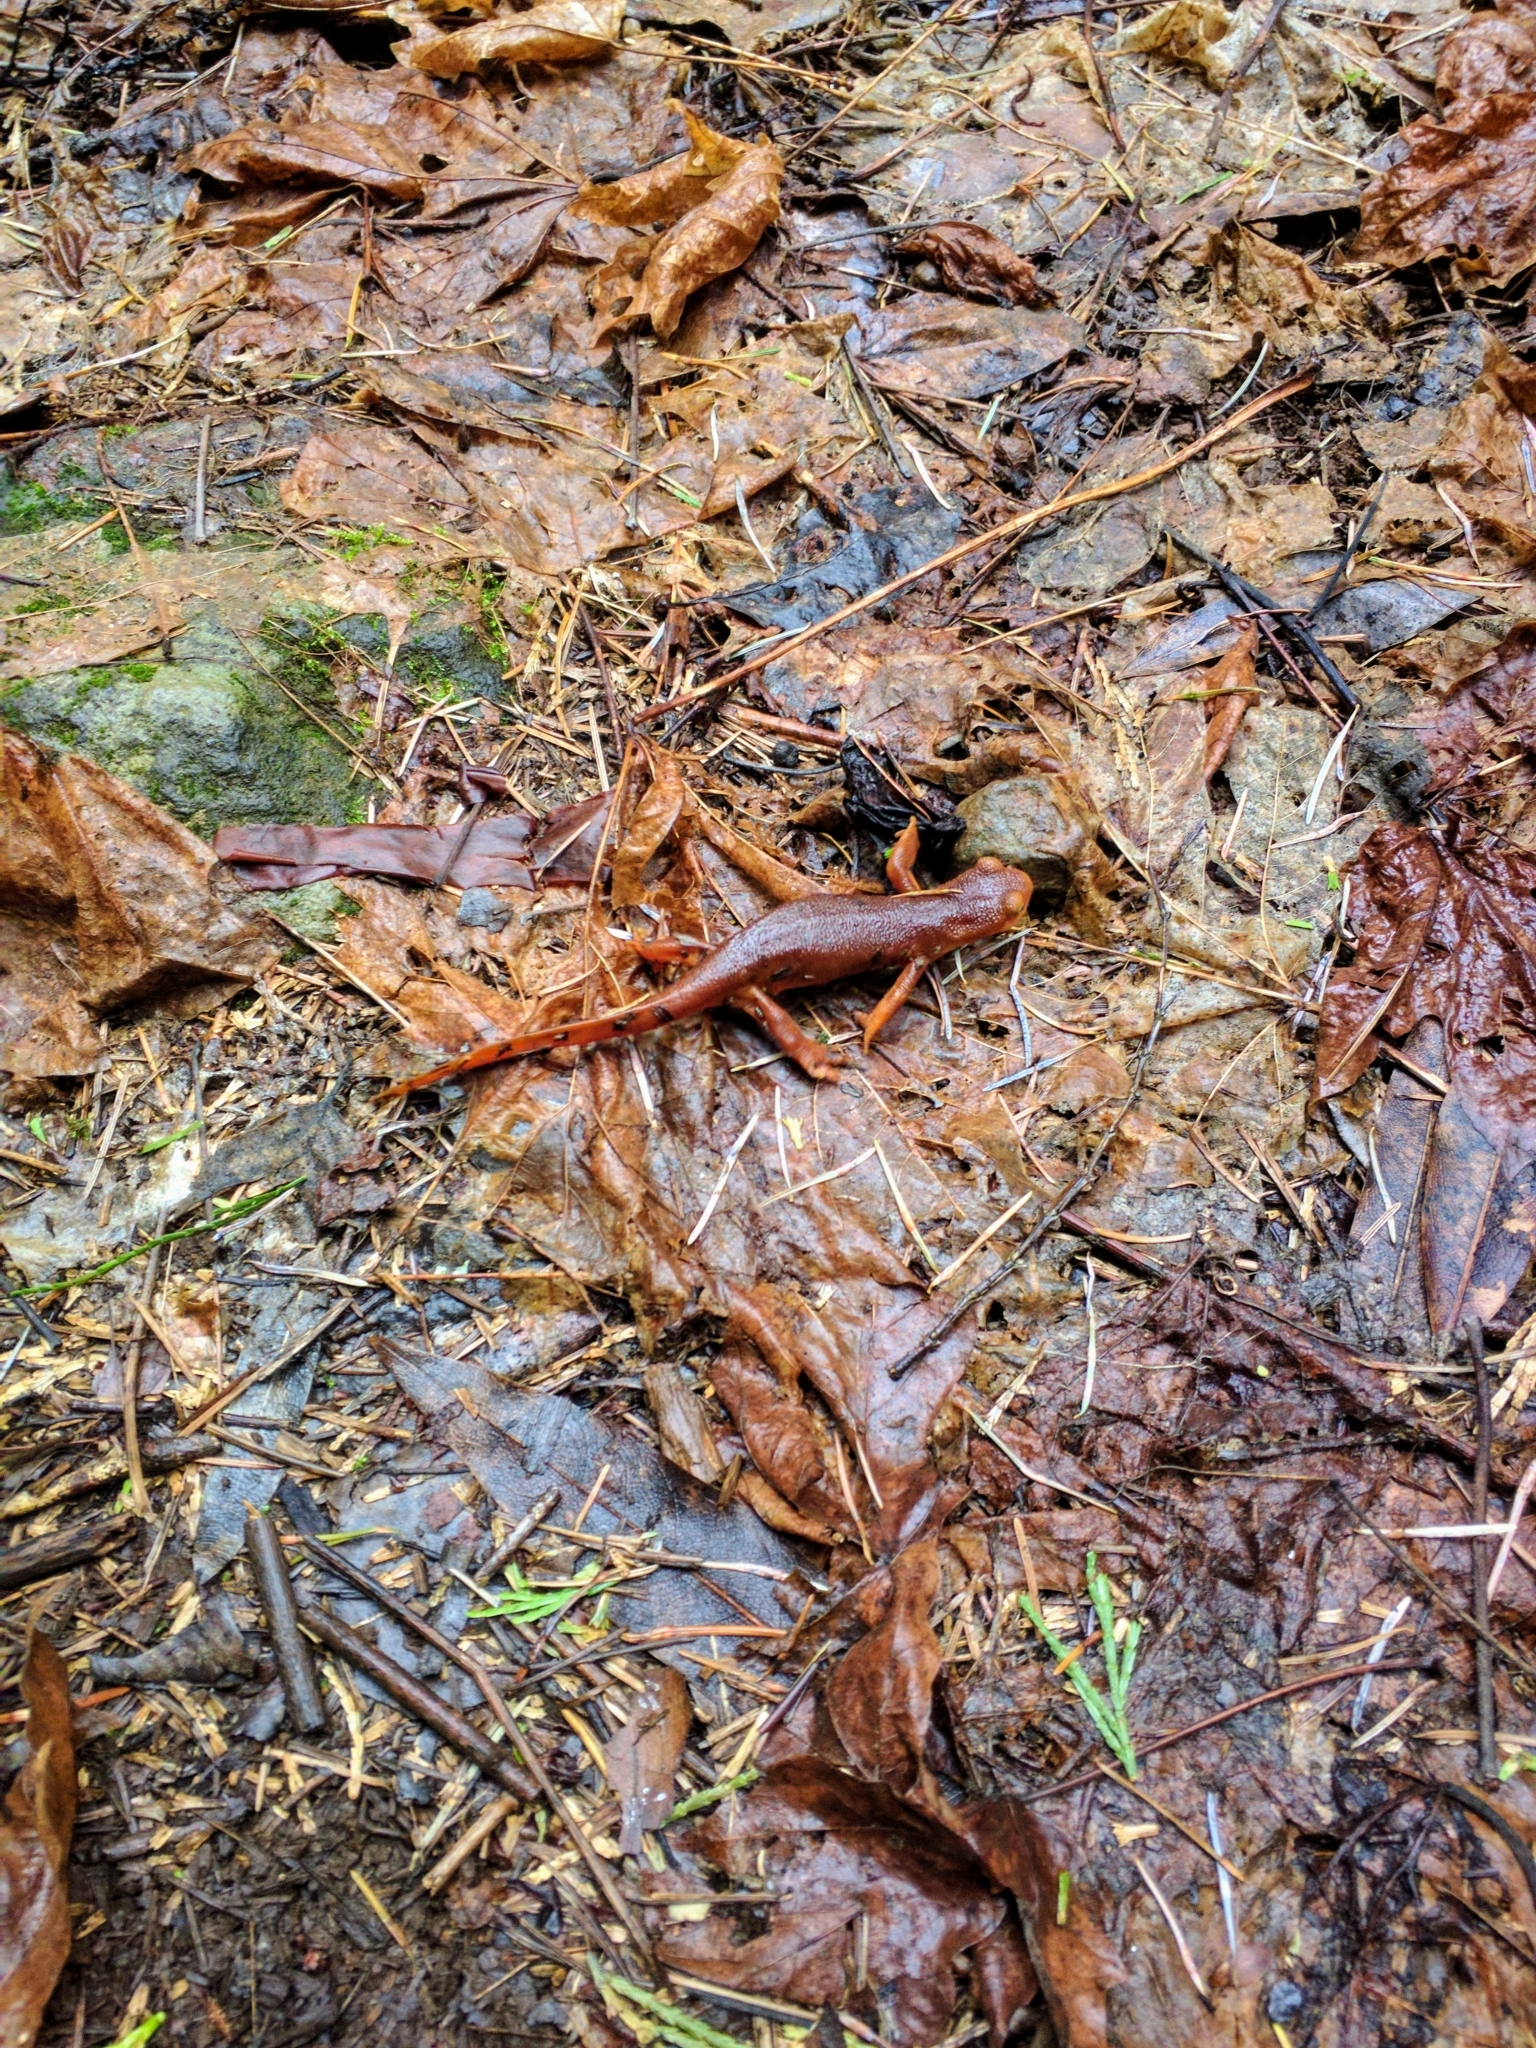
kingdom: Animalia
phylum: Chordata
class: Amphibia
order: Caudata
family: Salamandridae
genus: Taricha
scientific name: Taricha sierrae
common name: Sierra newt
